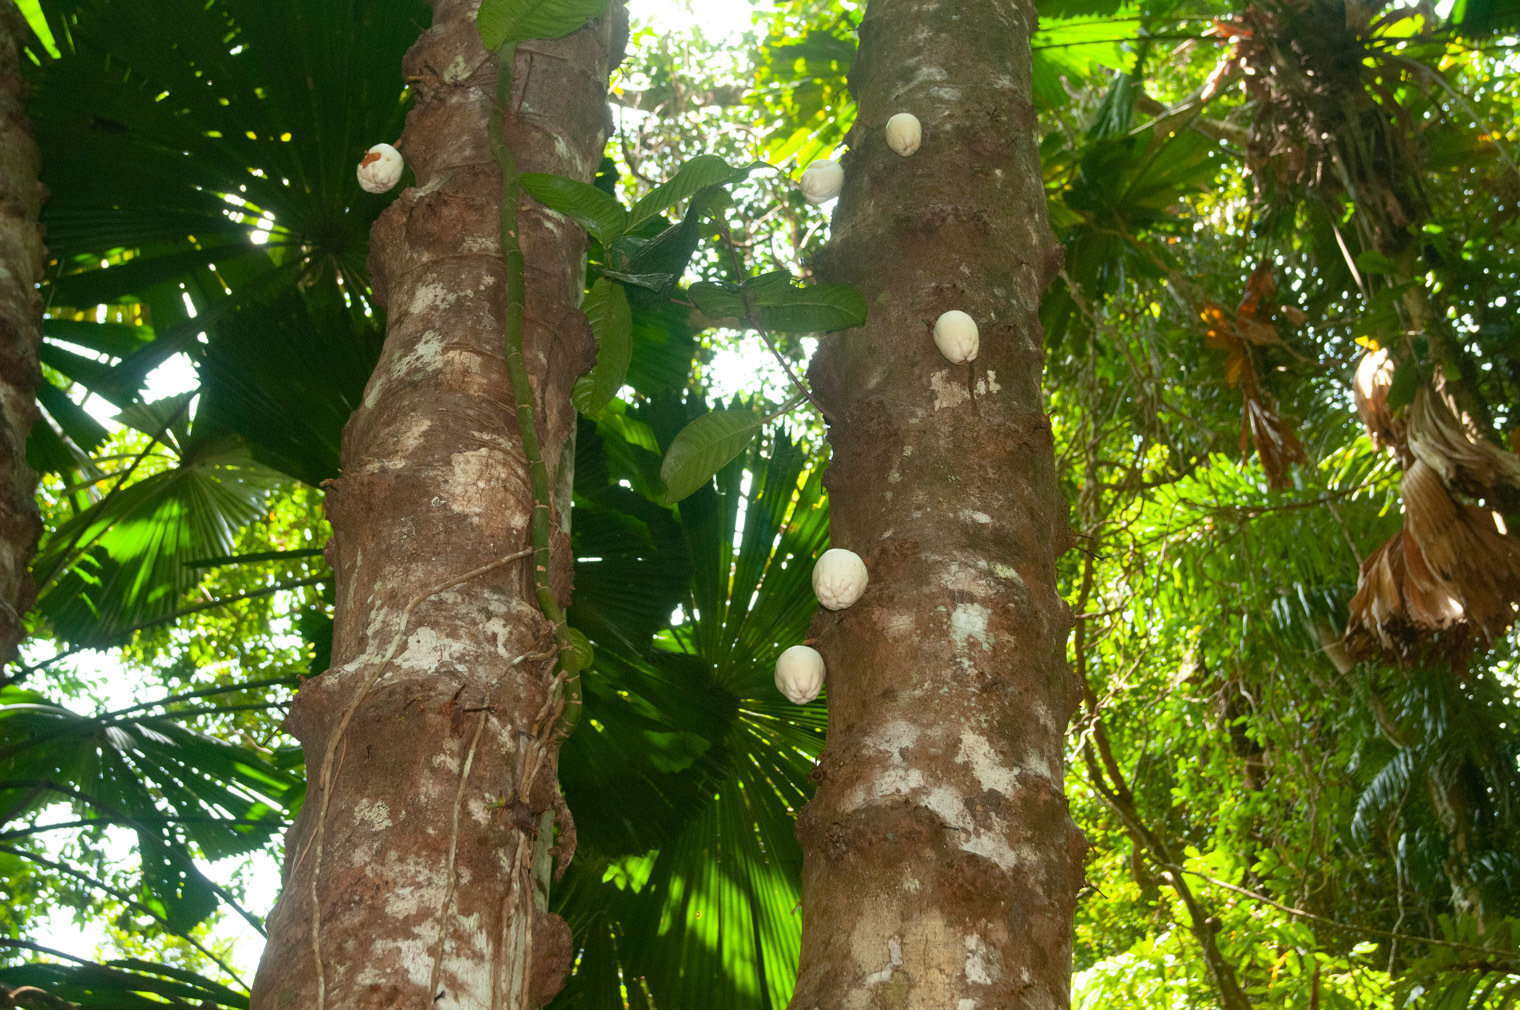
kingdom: Plantae
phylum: Tracheophyta
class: Magnoliopsida
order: Myrtales
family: Myrtaceae
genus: Syzygium
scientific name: Syzygium monospermum
